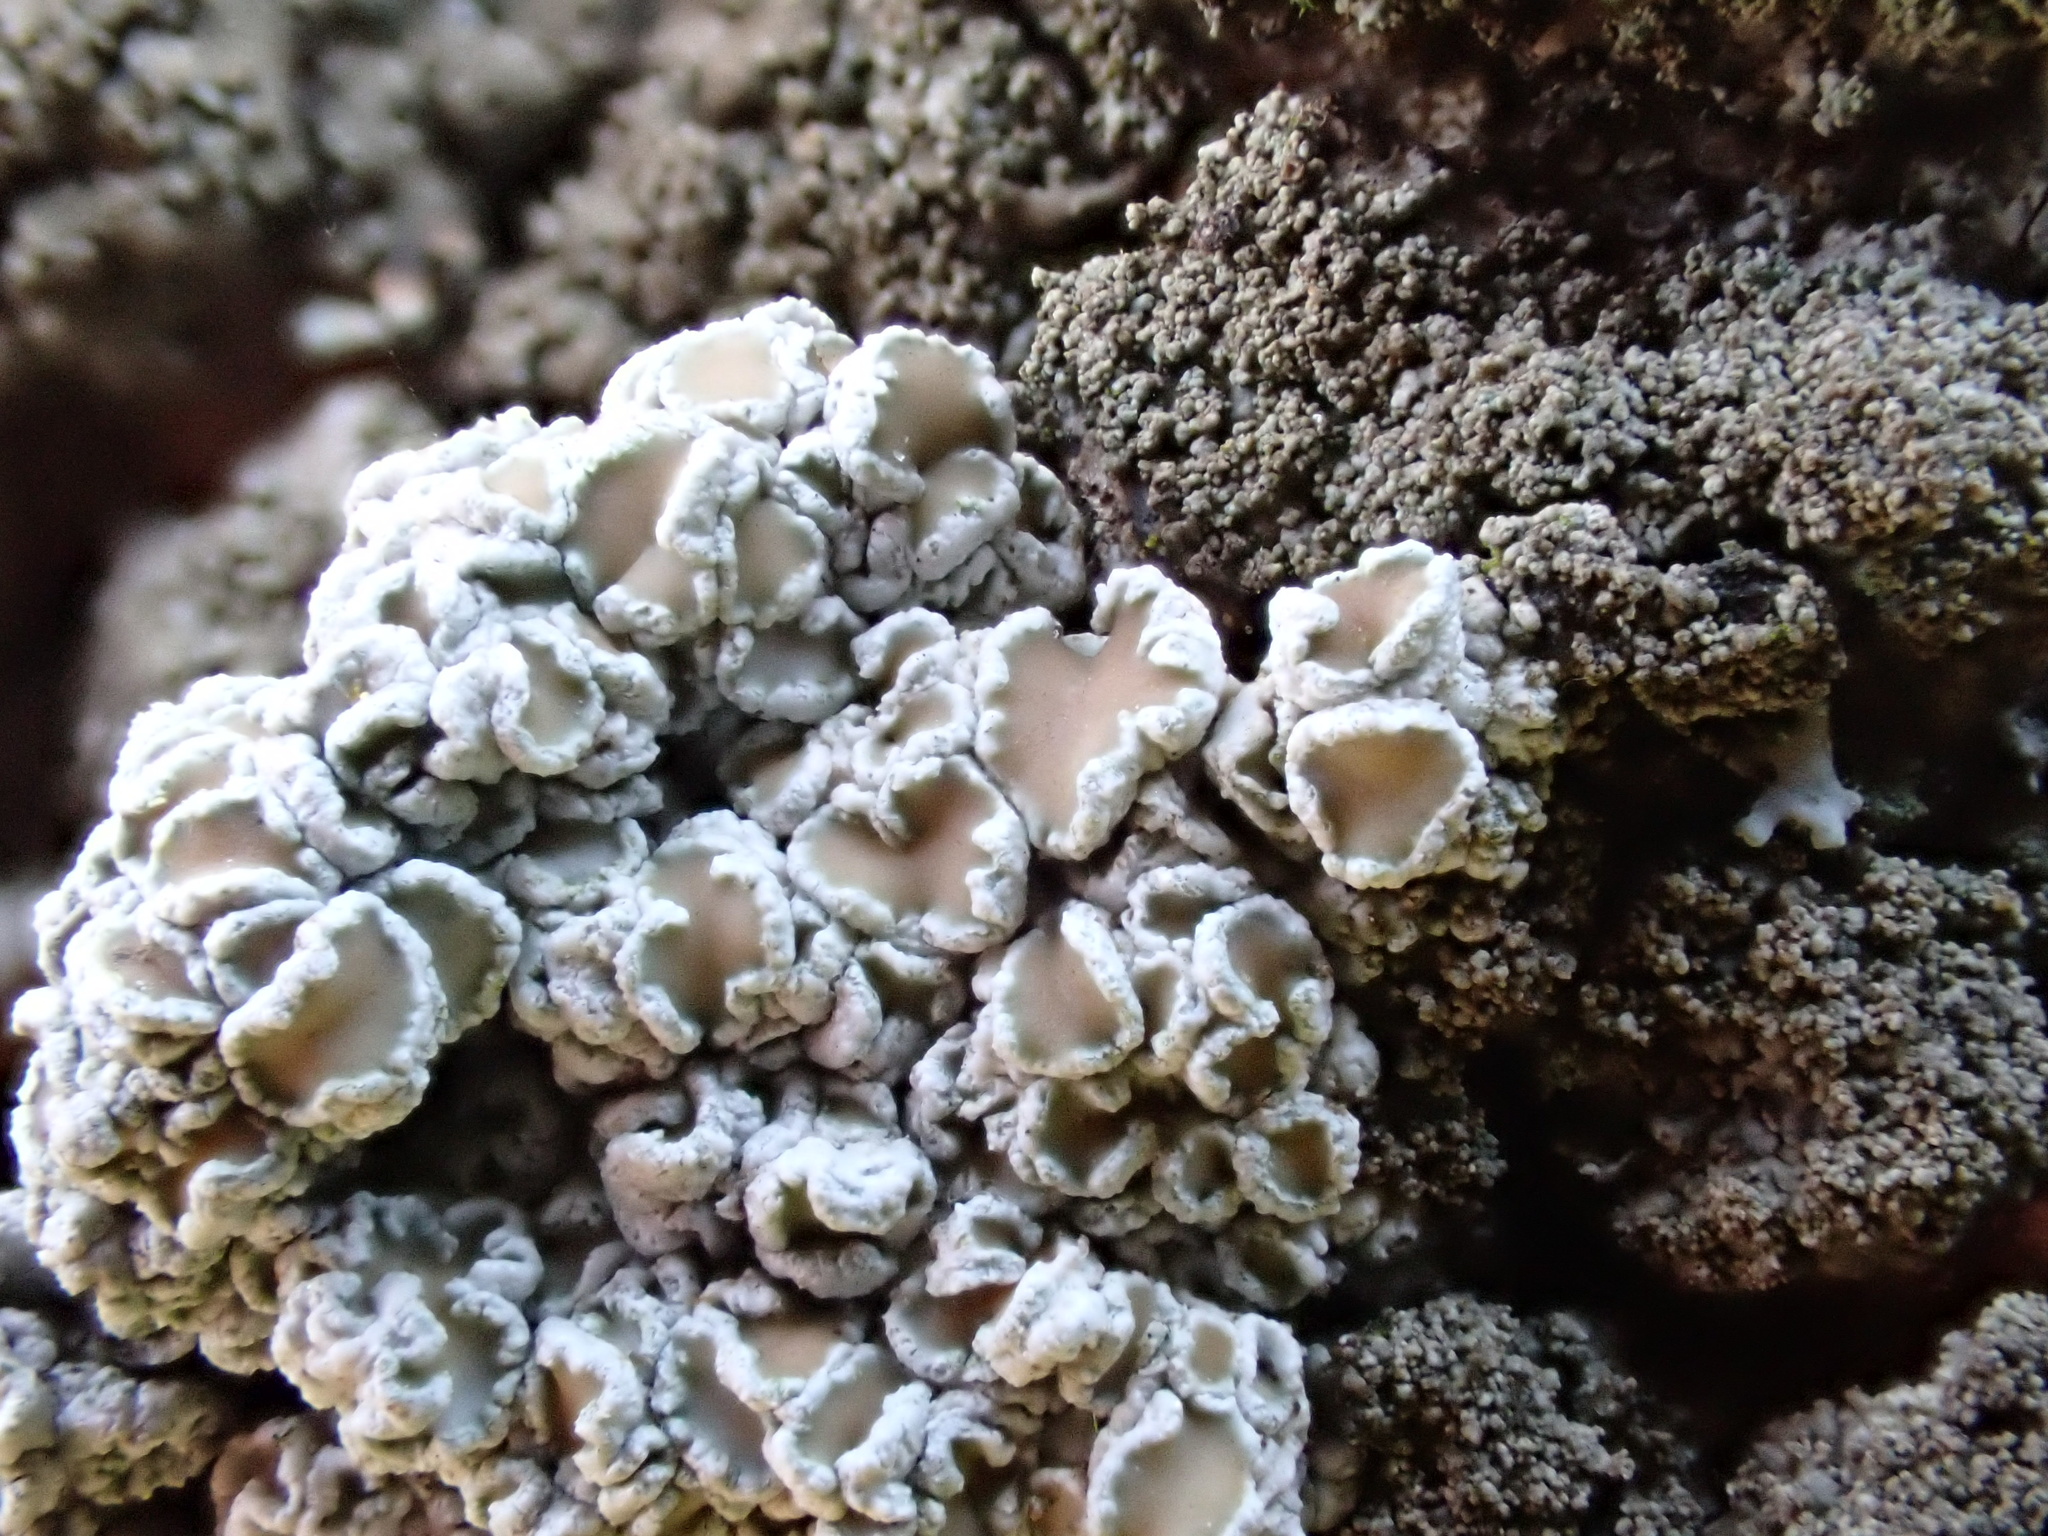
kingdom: Fungi
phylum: Ascomycota
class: Lecanoromycetes
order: Lecanorales
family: Lecanoraceae
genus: Lecanora
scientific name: Lecanora chlarotera
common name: Brown rim-lichen
